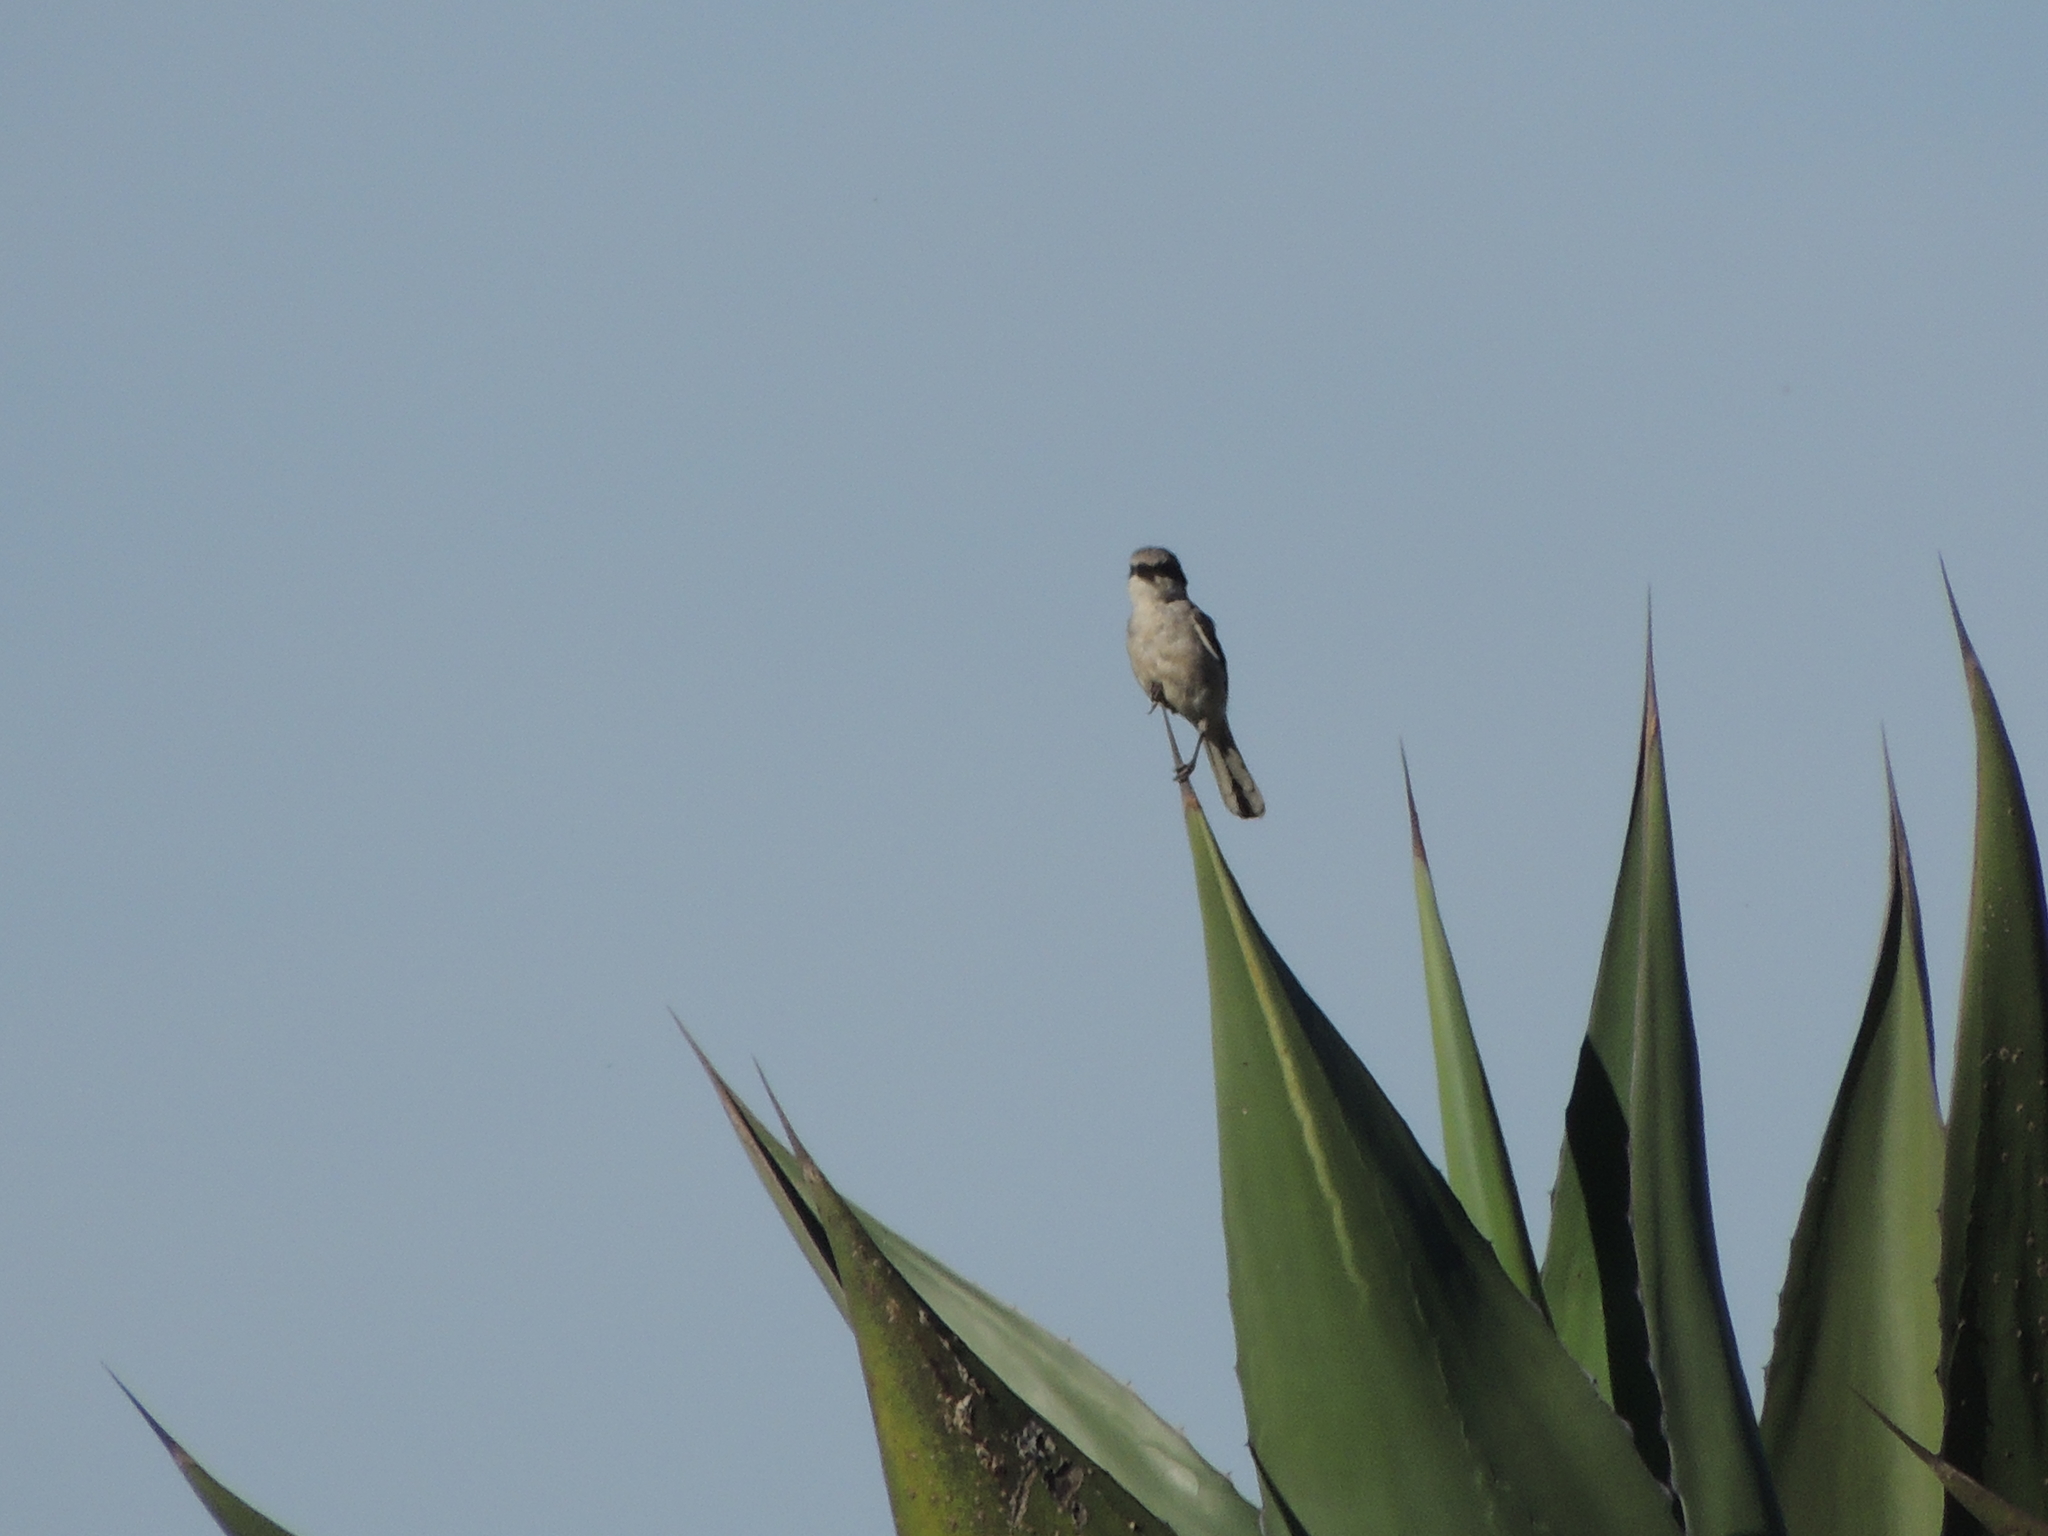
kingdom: Animalia
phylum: Chordata
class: Aves
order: Passeriformes
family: Laniidae
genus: Lanius
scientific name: Lanius ludovicianus
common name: Loggerhead shrike
